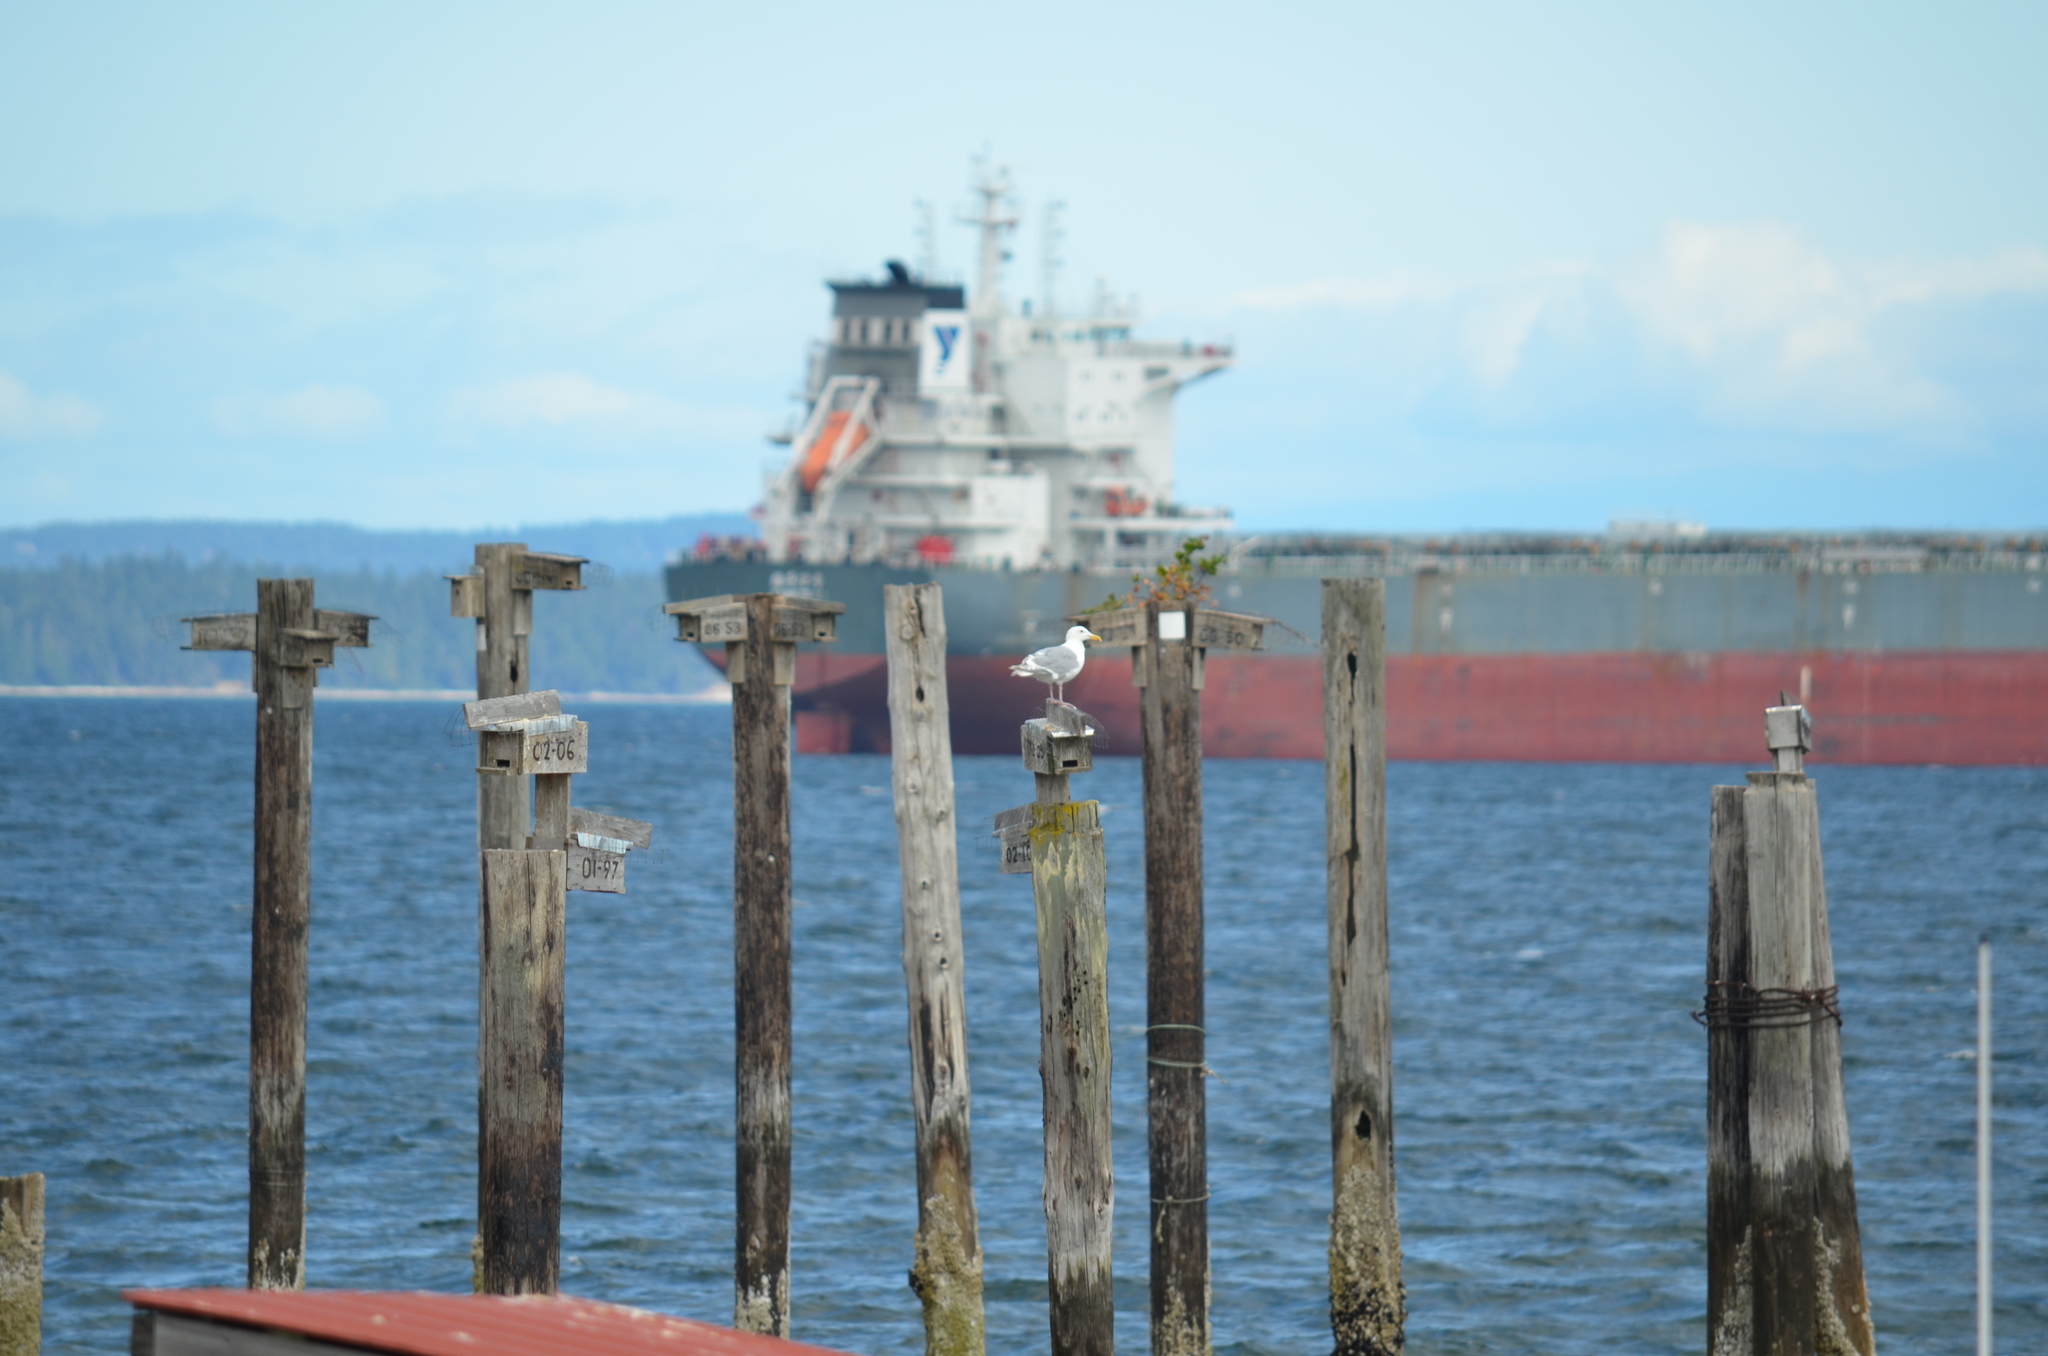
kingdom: Animalia
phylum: Chordata
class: Aves
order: Charadriiformes
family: Laridae
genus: Larus
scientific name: Larus glaucescens
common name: Glaucous-winged gull
